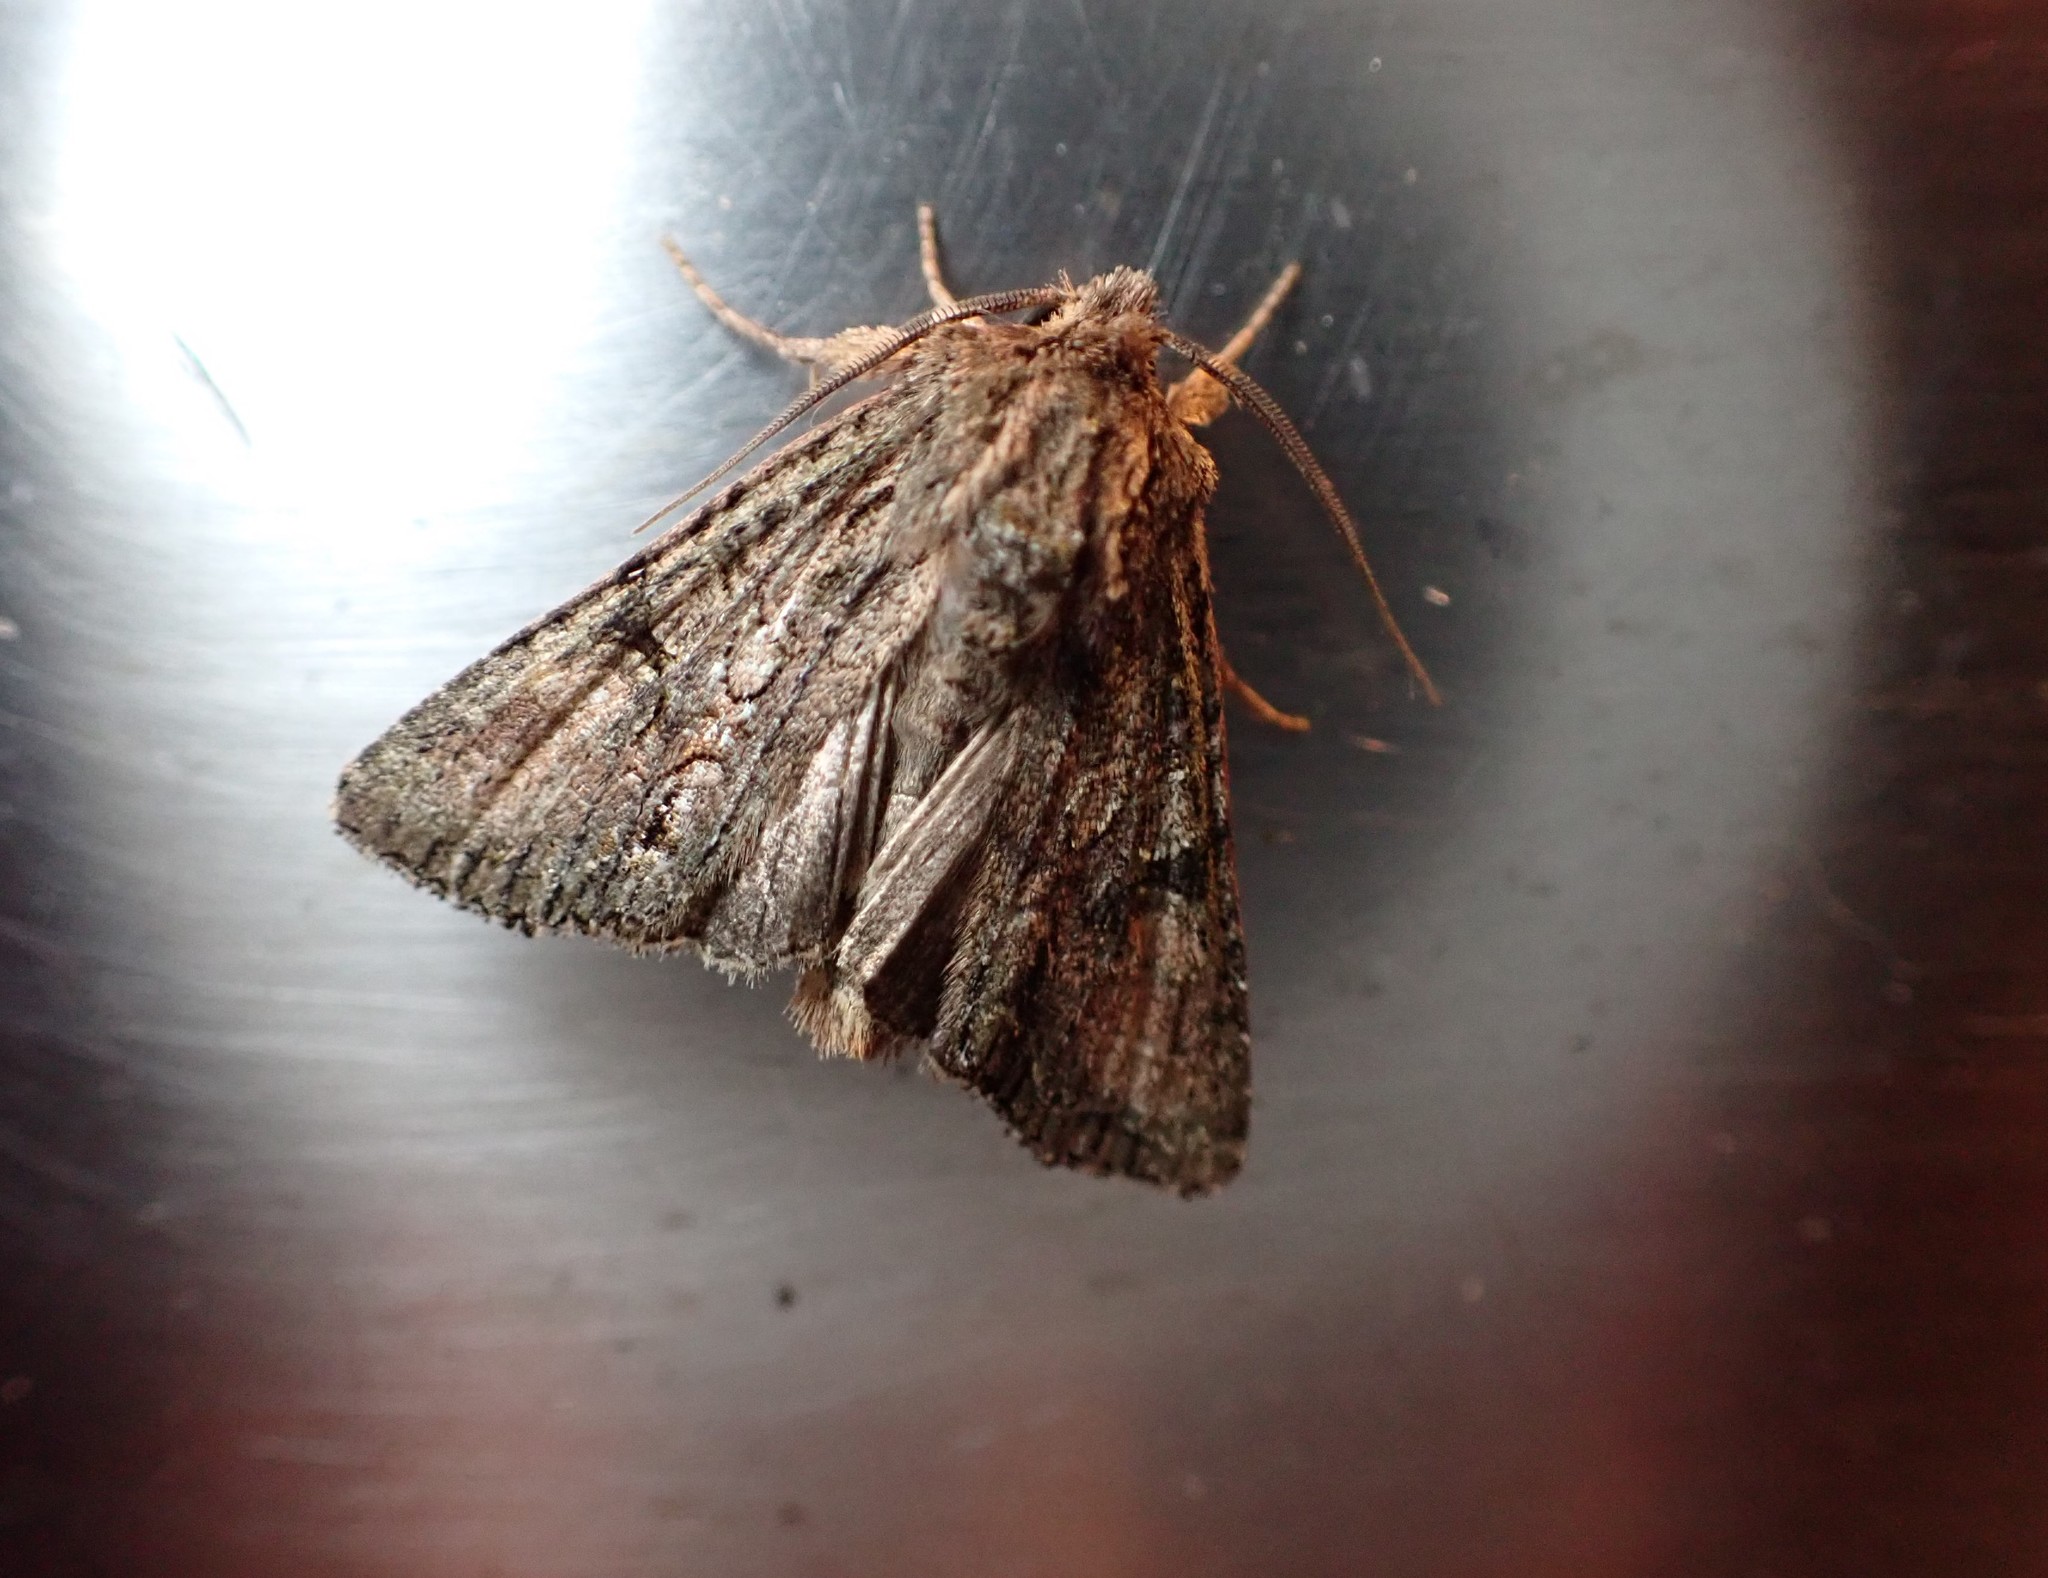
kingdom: Animalia
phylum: Arthropoda
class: Insecta
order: Lepidoptera
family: Noctuidae
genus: Ichneutica
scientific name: Ichneutica mutans
